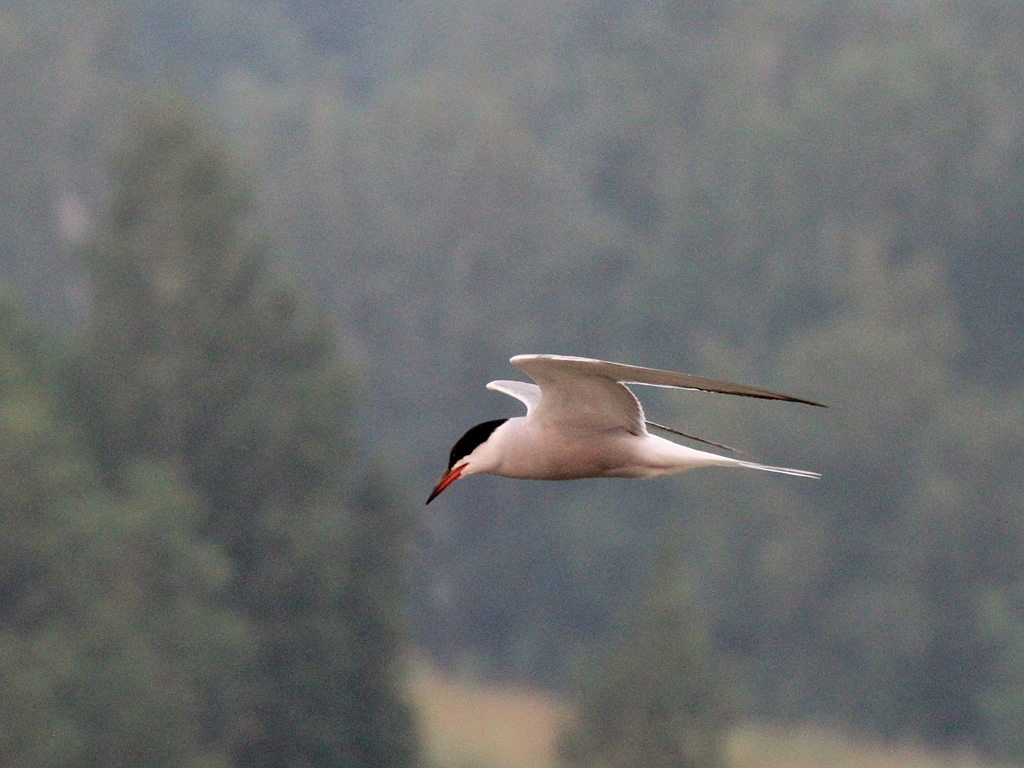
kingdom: Animalia
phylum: Chordata
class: Aves
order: Charadriiformes
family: Laridae
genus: Sterna
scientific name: Sterna hirundo
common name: Common tern
